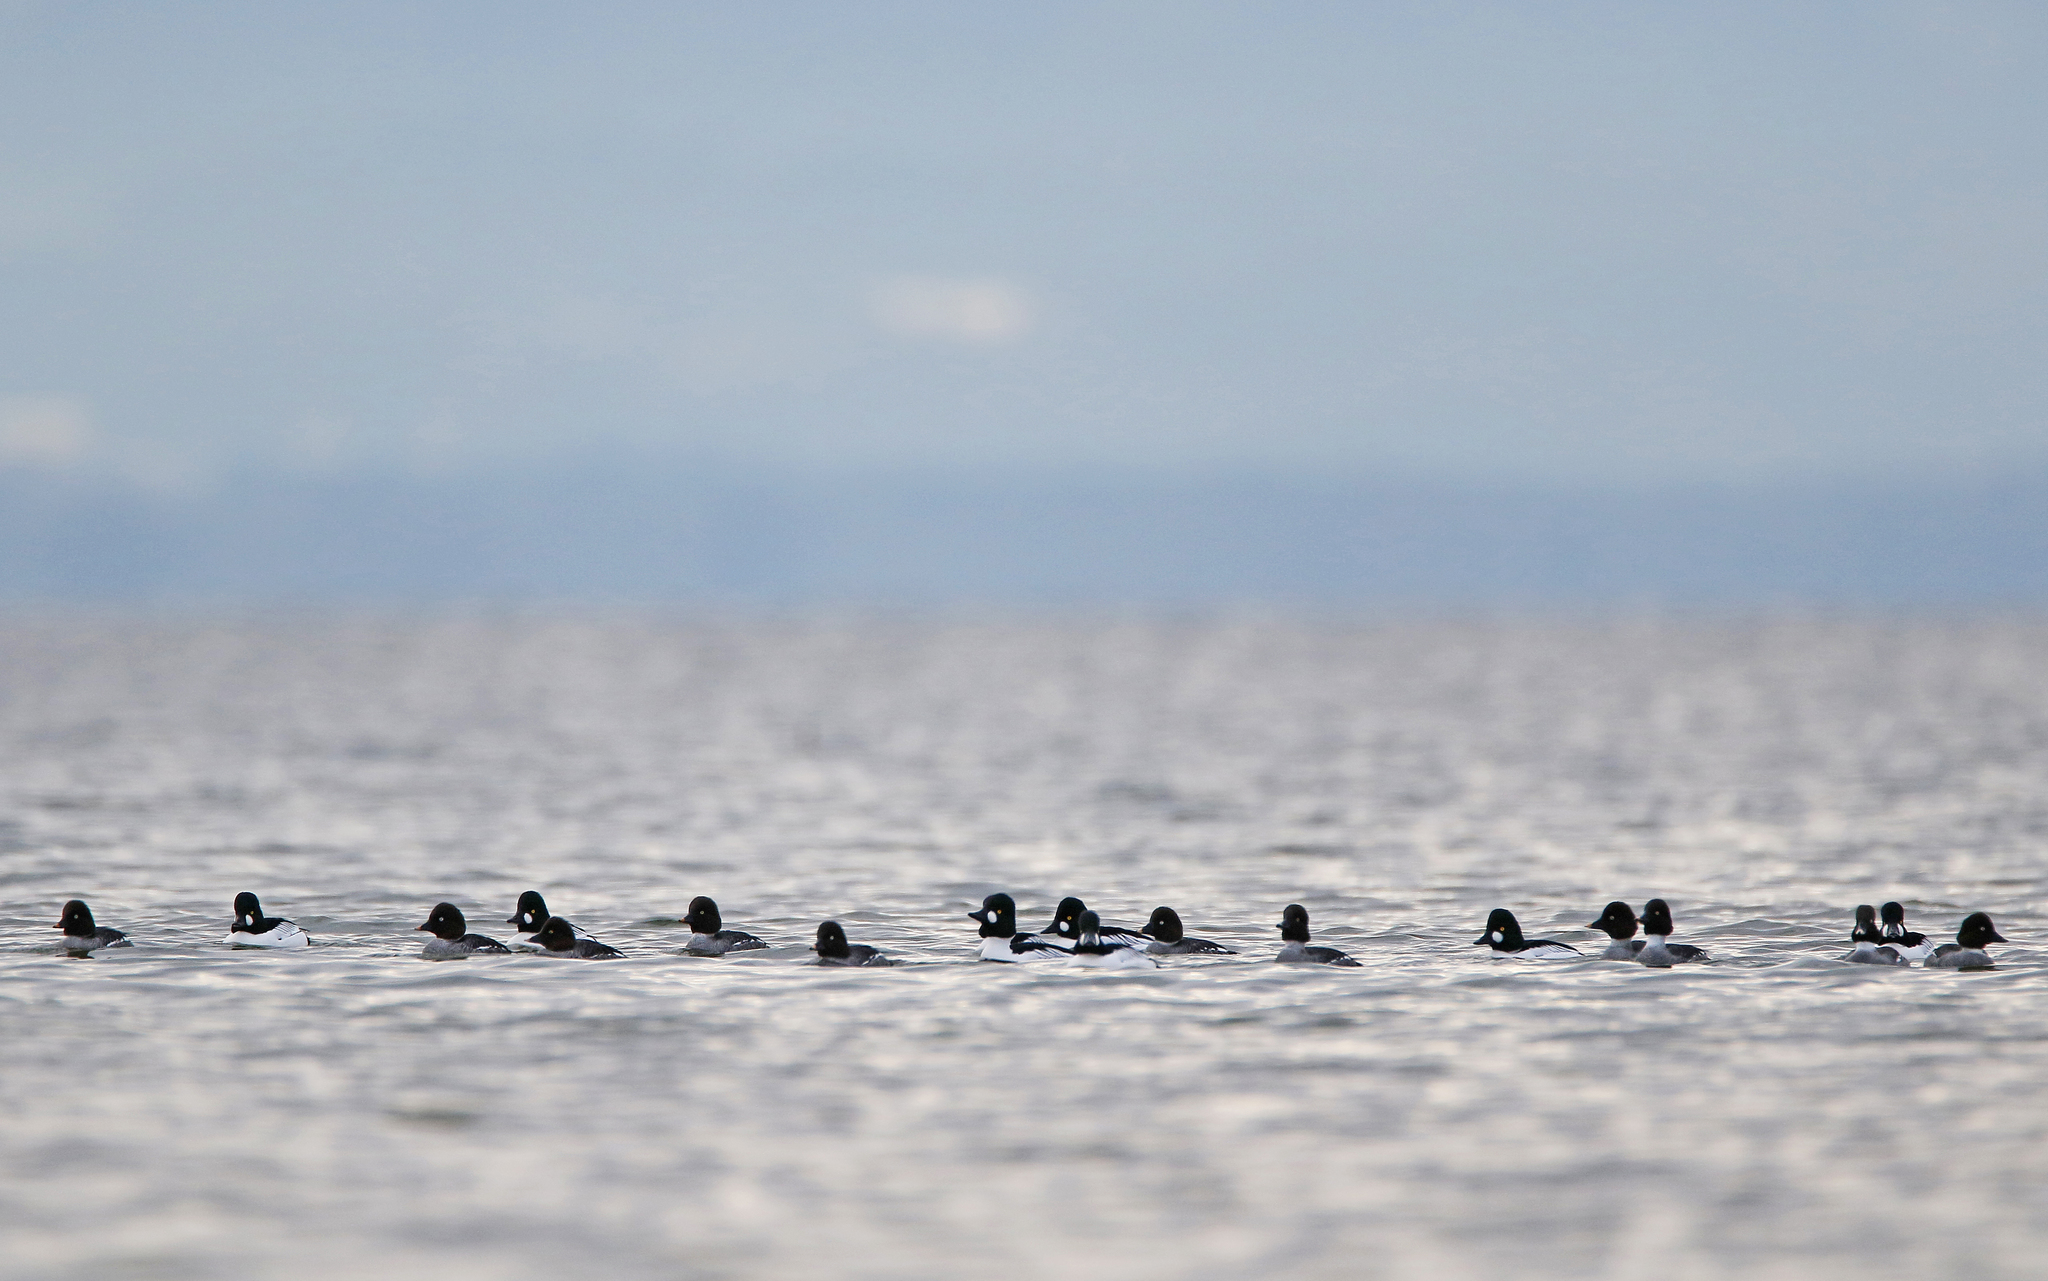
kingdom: Animalia
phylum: Chordata
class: Aves
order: Anseriformes
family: Anatidae
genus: Bucephala
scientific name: Bucephala clangula
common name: Common goldeneye
